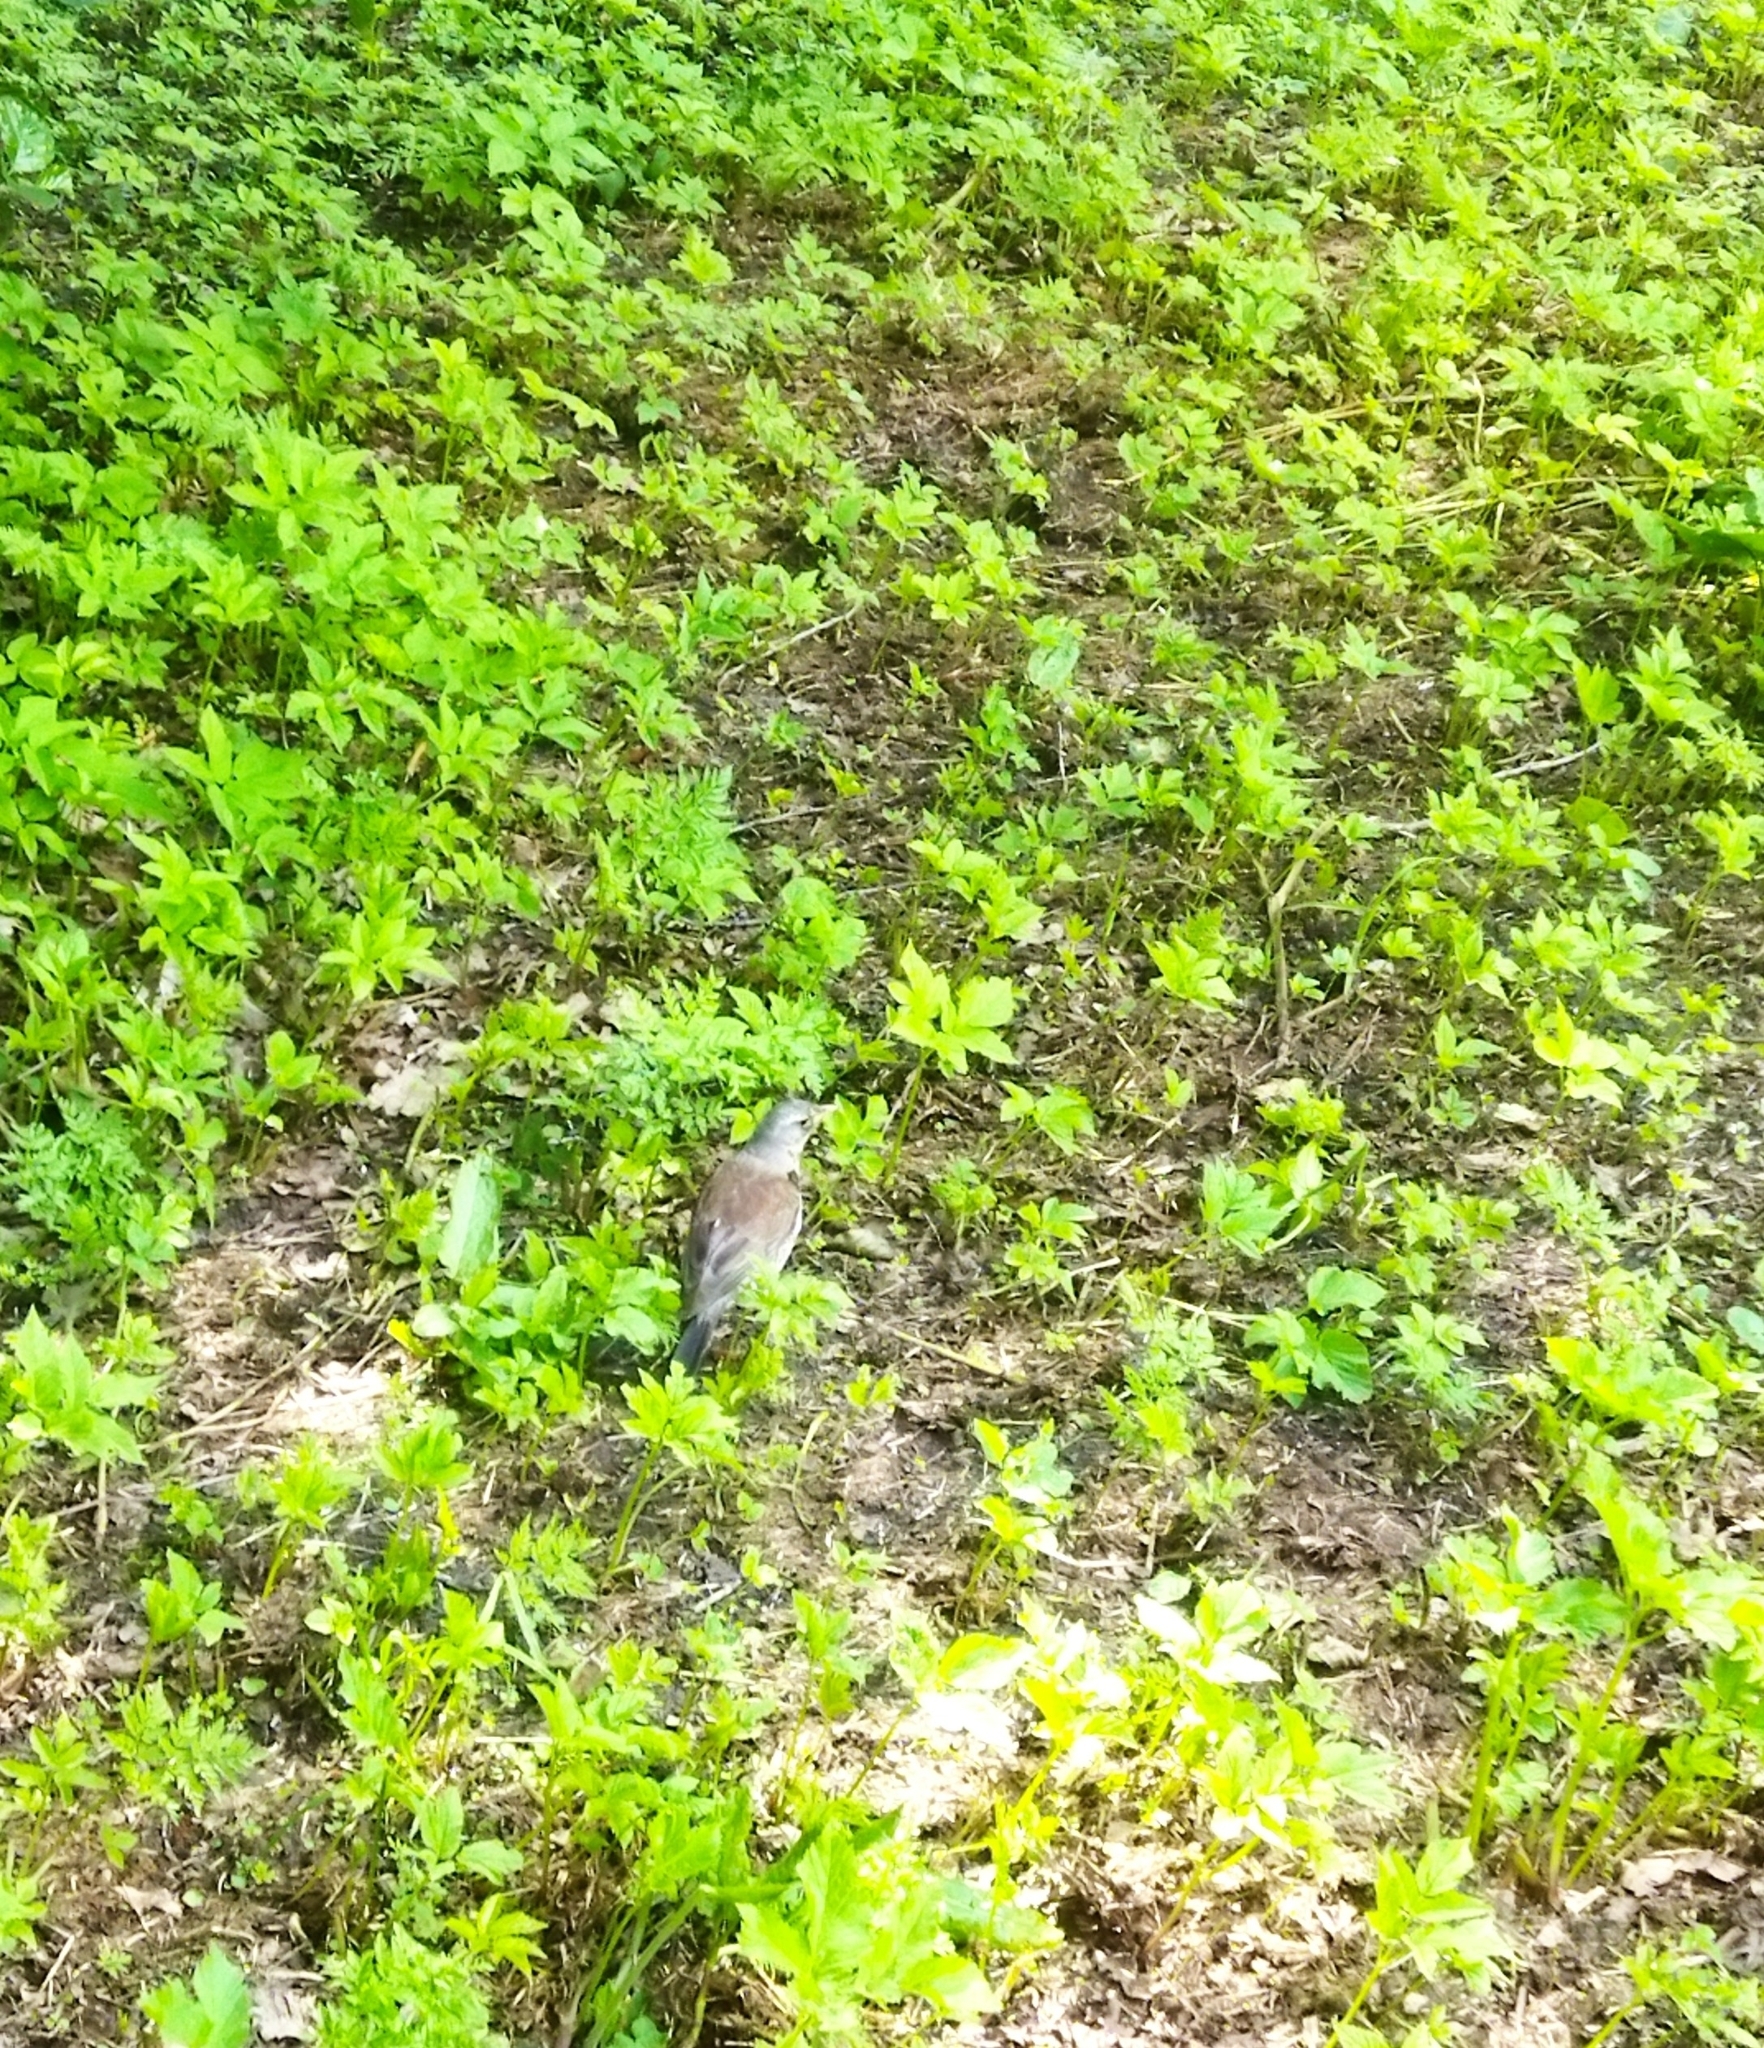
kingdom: Animalia
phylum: Chordata
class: Aves
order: Passeriformes
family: Turdidae
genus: Turdus
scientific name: Turdus pilaris
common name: Fieldfare
